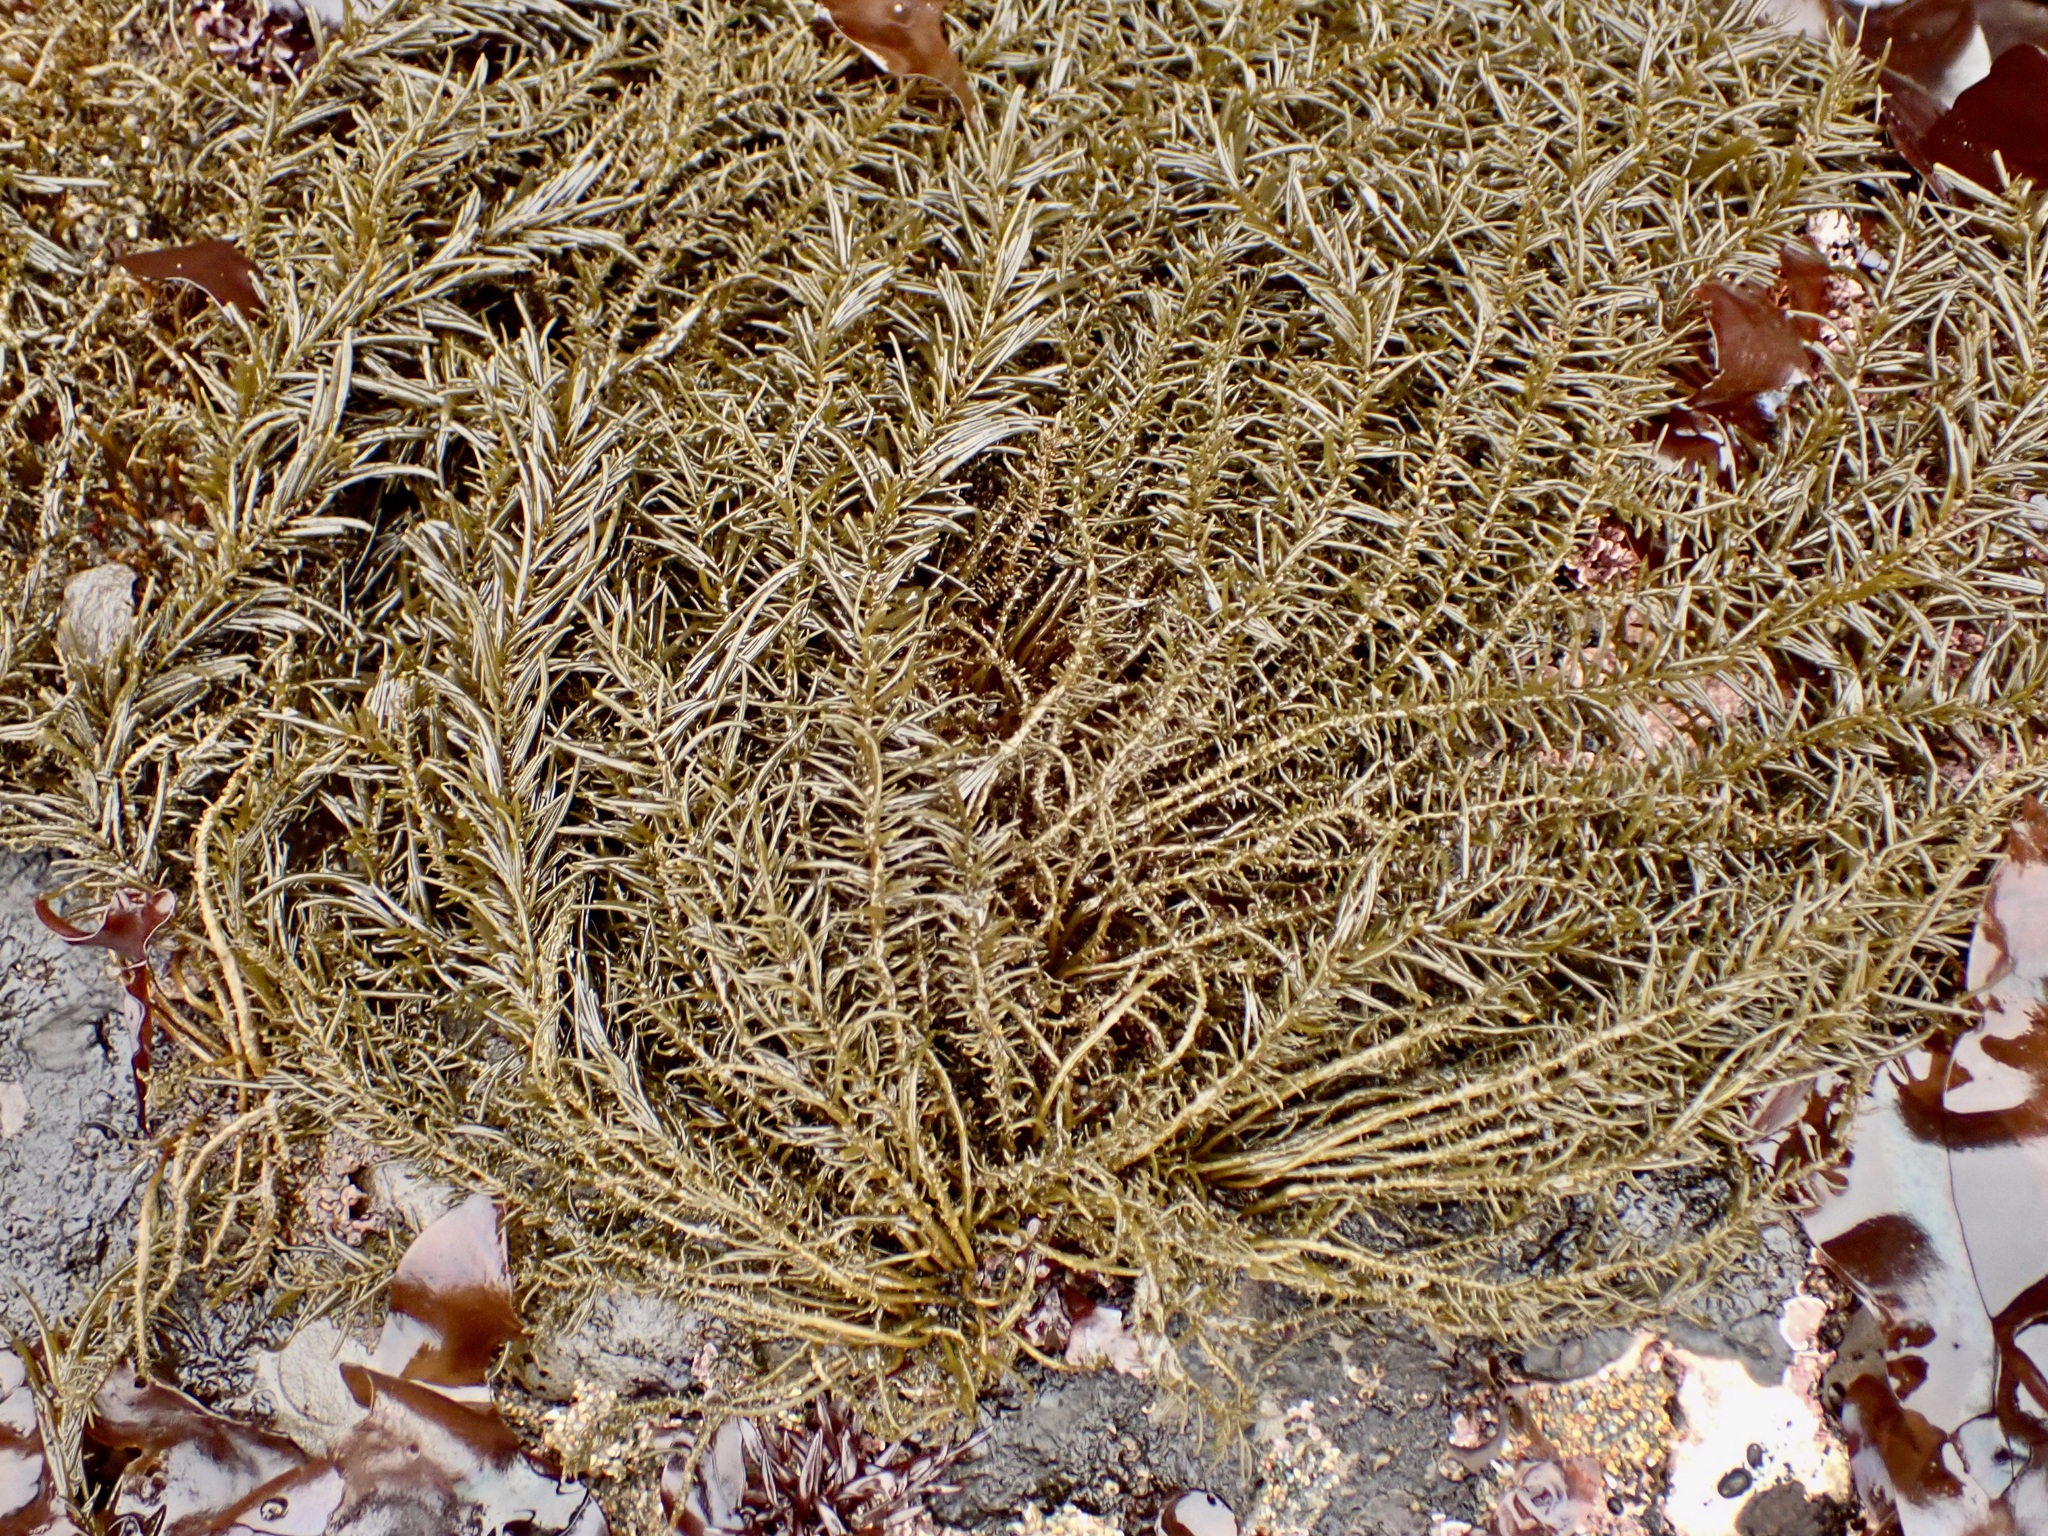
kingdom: Chromista
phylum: Ochrophyta
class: Phaeophyceae
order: Scytosiphonales
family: Scytosiphonaceae
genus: Analipus
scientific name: Analipus japonicus
